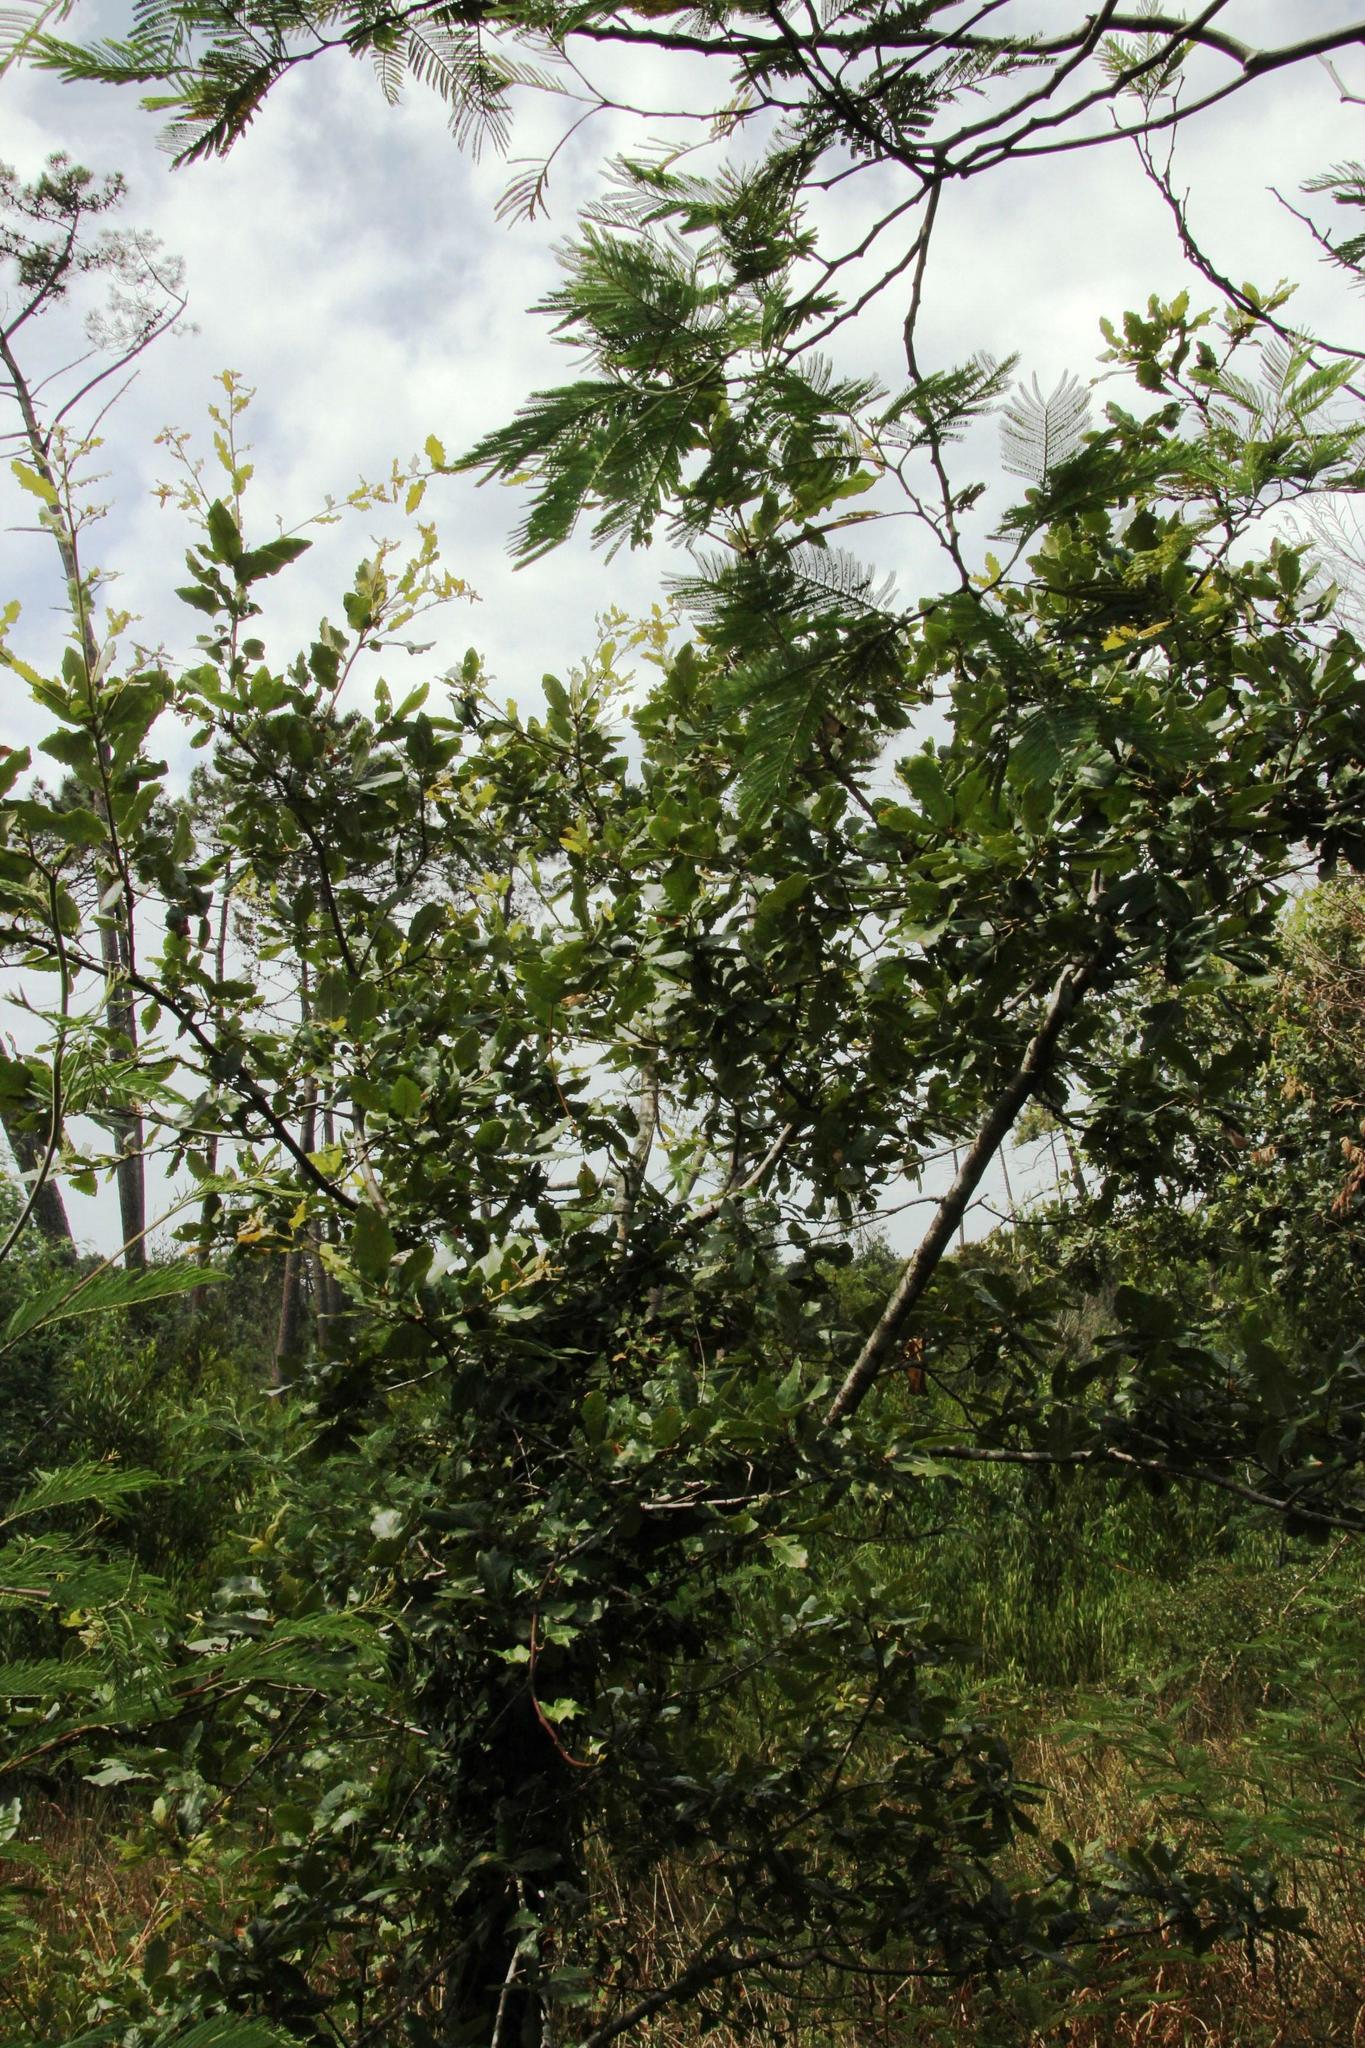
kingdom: Plantae
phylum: Tracheophyta
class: Magnoliopsida
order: Fagales
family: Fagaceae
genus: Quercus
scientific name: Quercus faginea
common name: Gall oak tree
